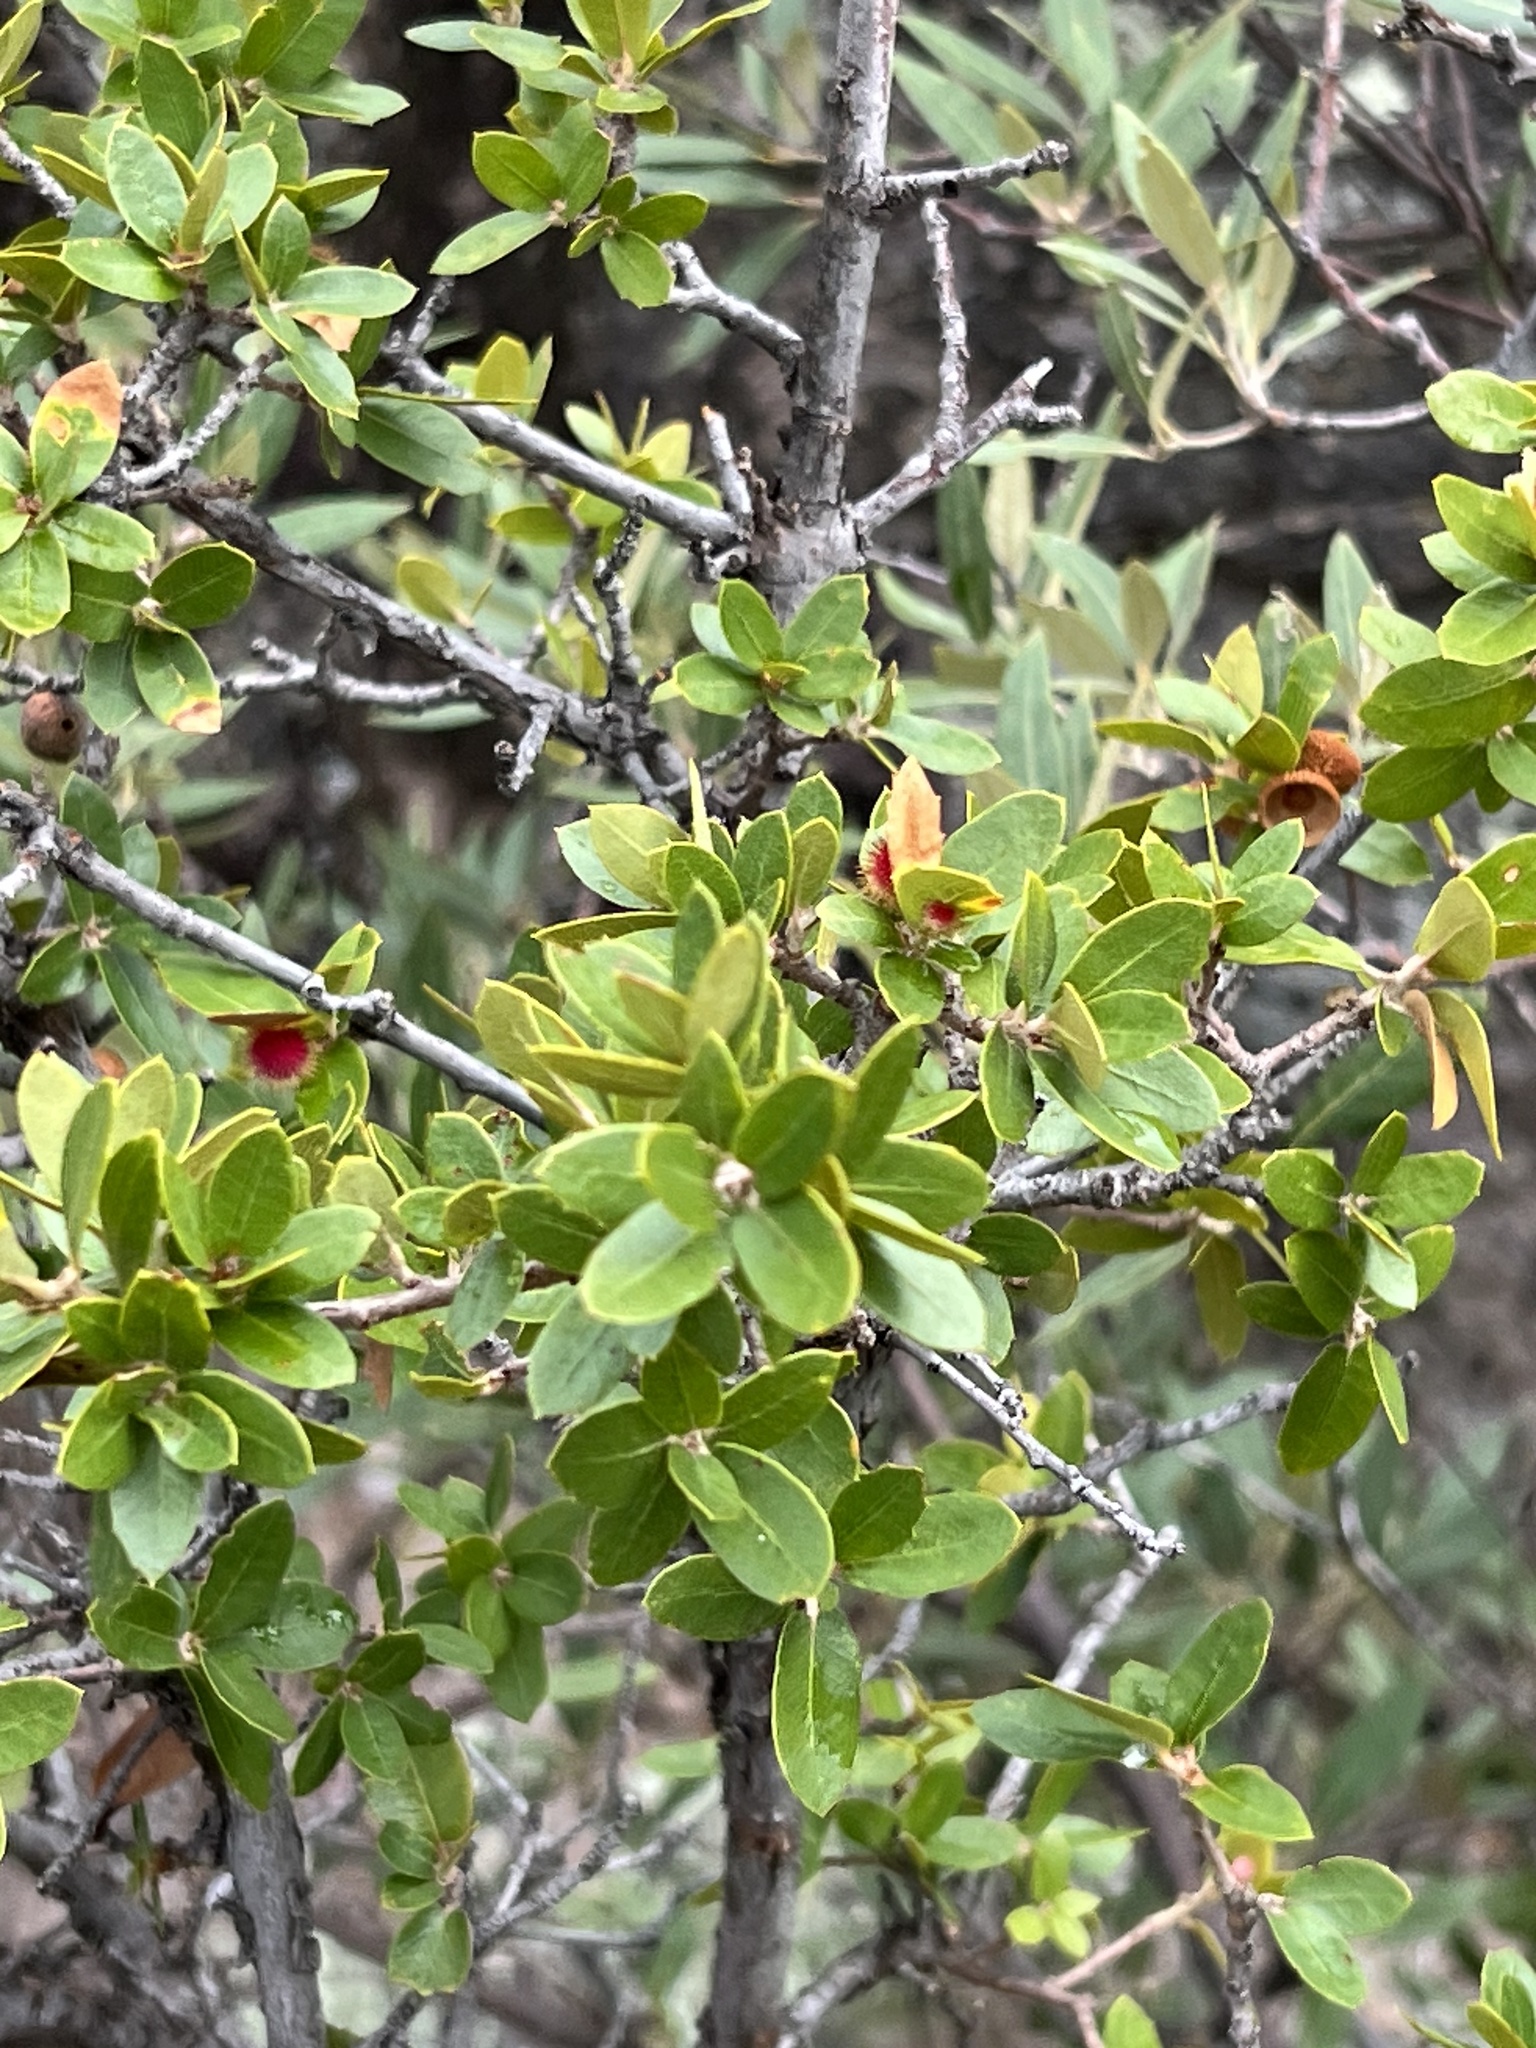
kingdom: Plantae
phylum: Tracheophyta
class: Magnoliopsida
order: Fagales
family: Fagaceae
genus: Quercus
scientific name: Quercus toumeyi
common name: Toumey oak
